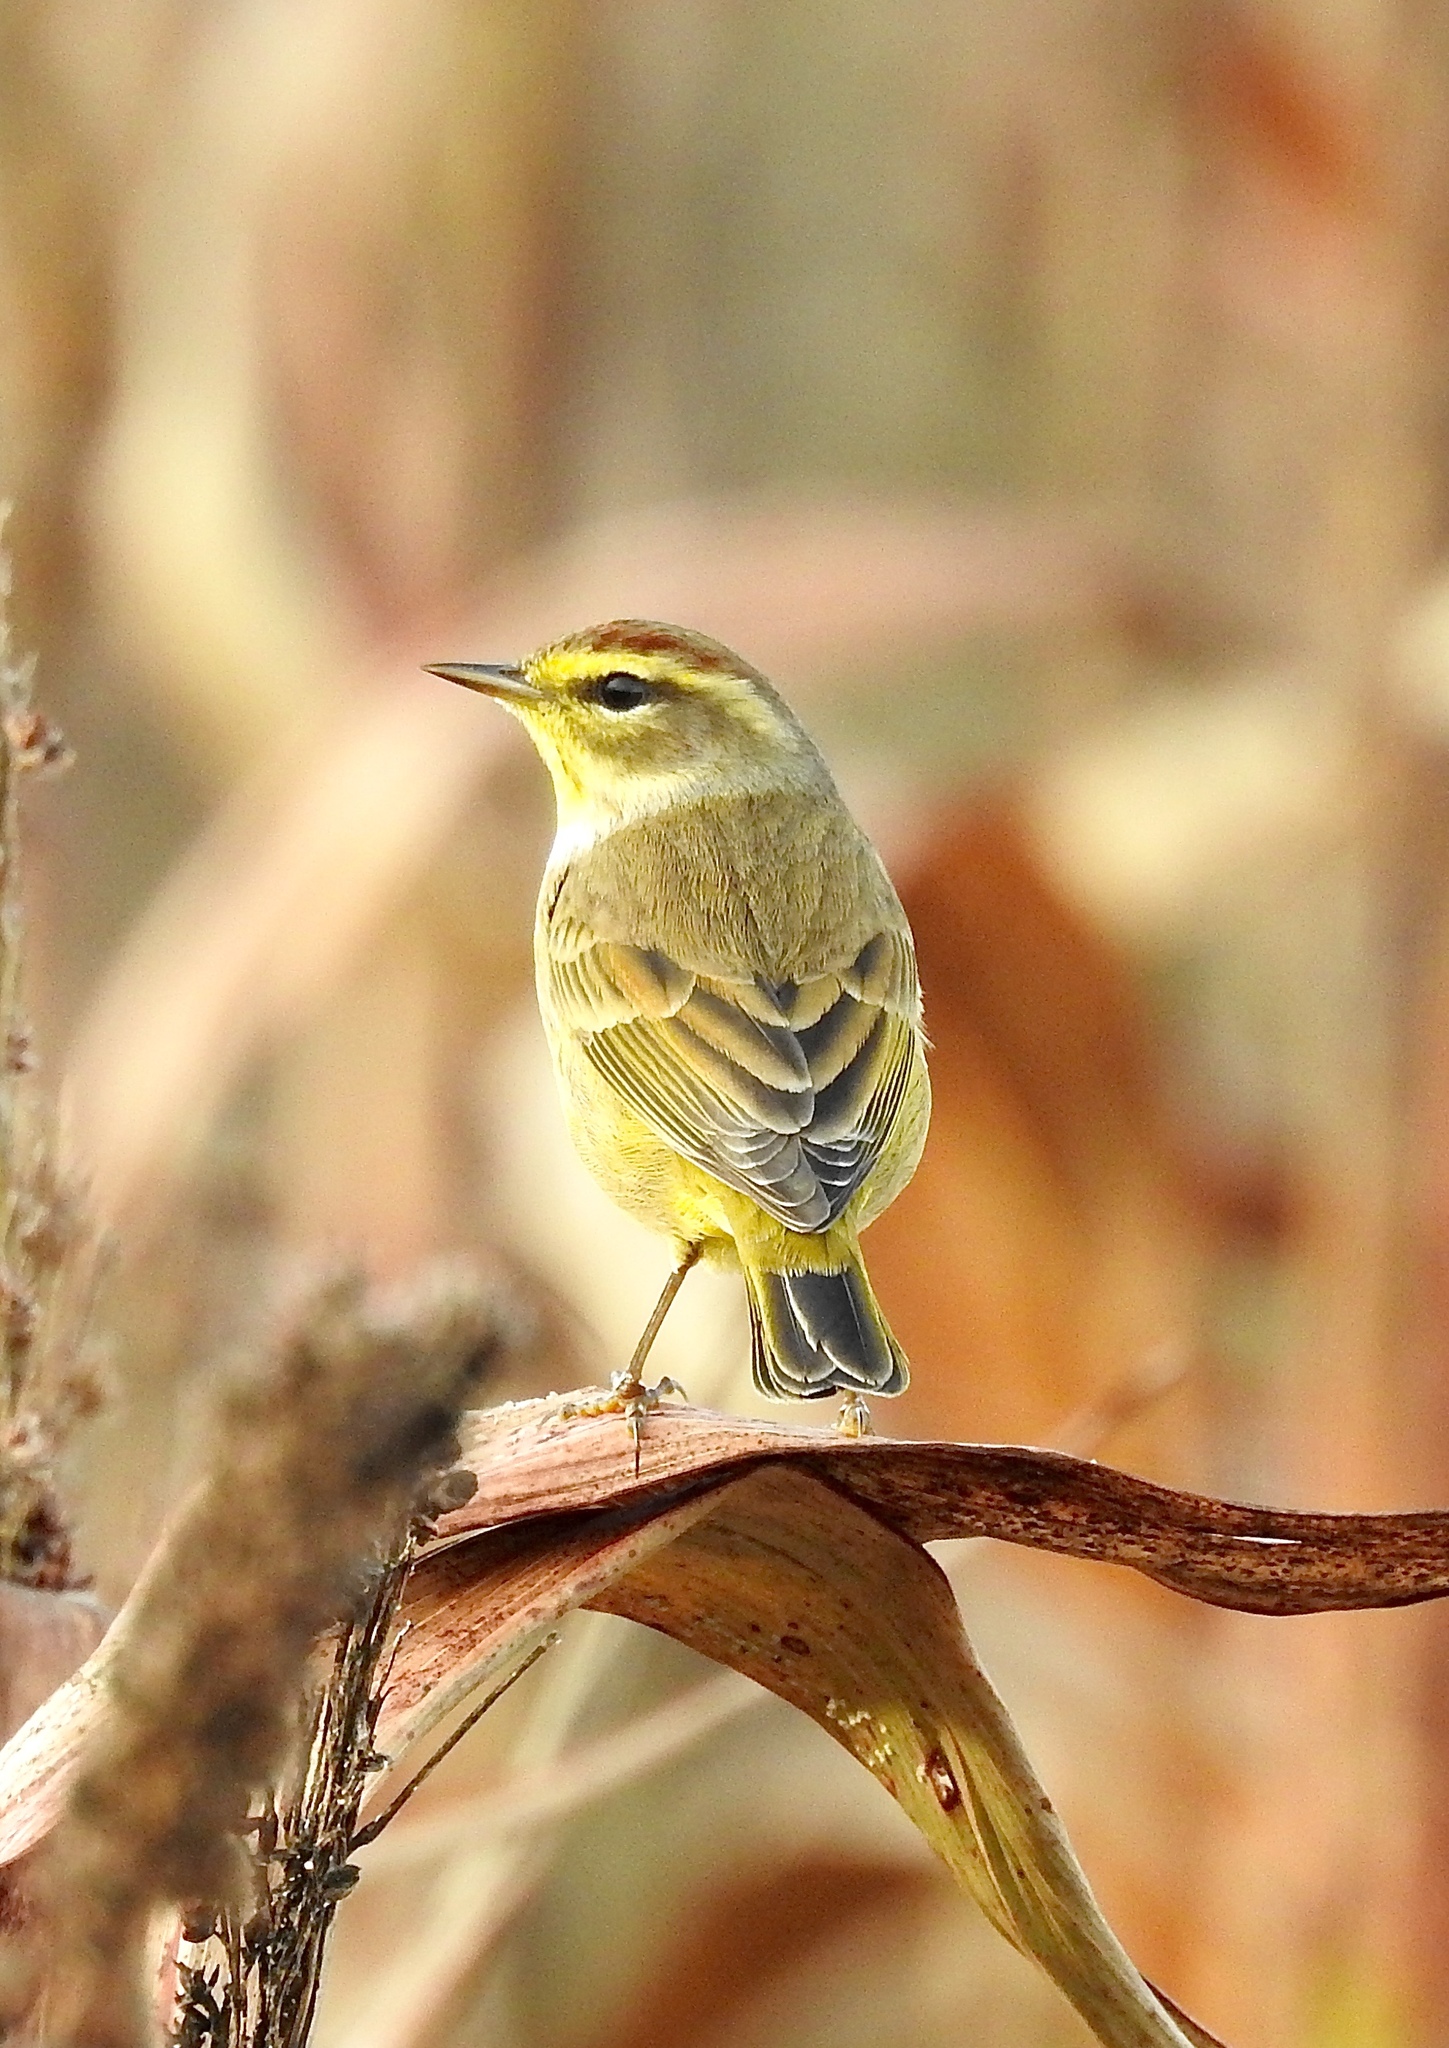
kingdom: Animalia
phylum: Chordata
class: Aves
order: Passeriformes
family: Parulidae
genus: Setophaga
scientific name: Setophaga palmarum
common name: Palm warbler
